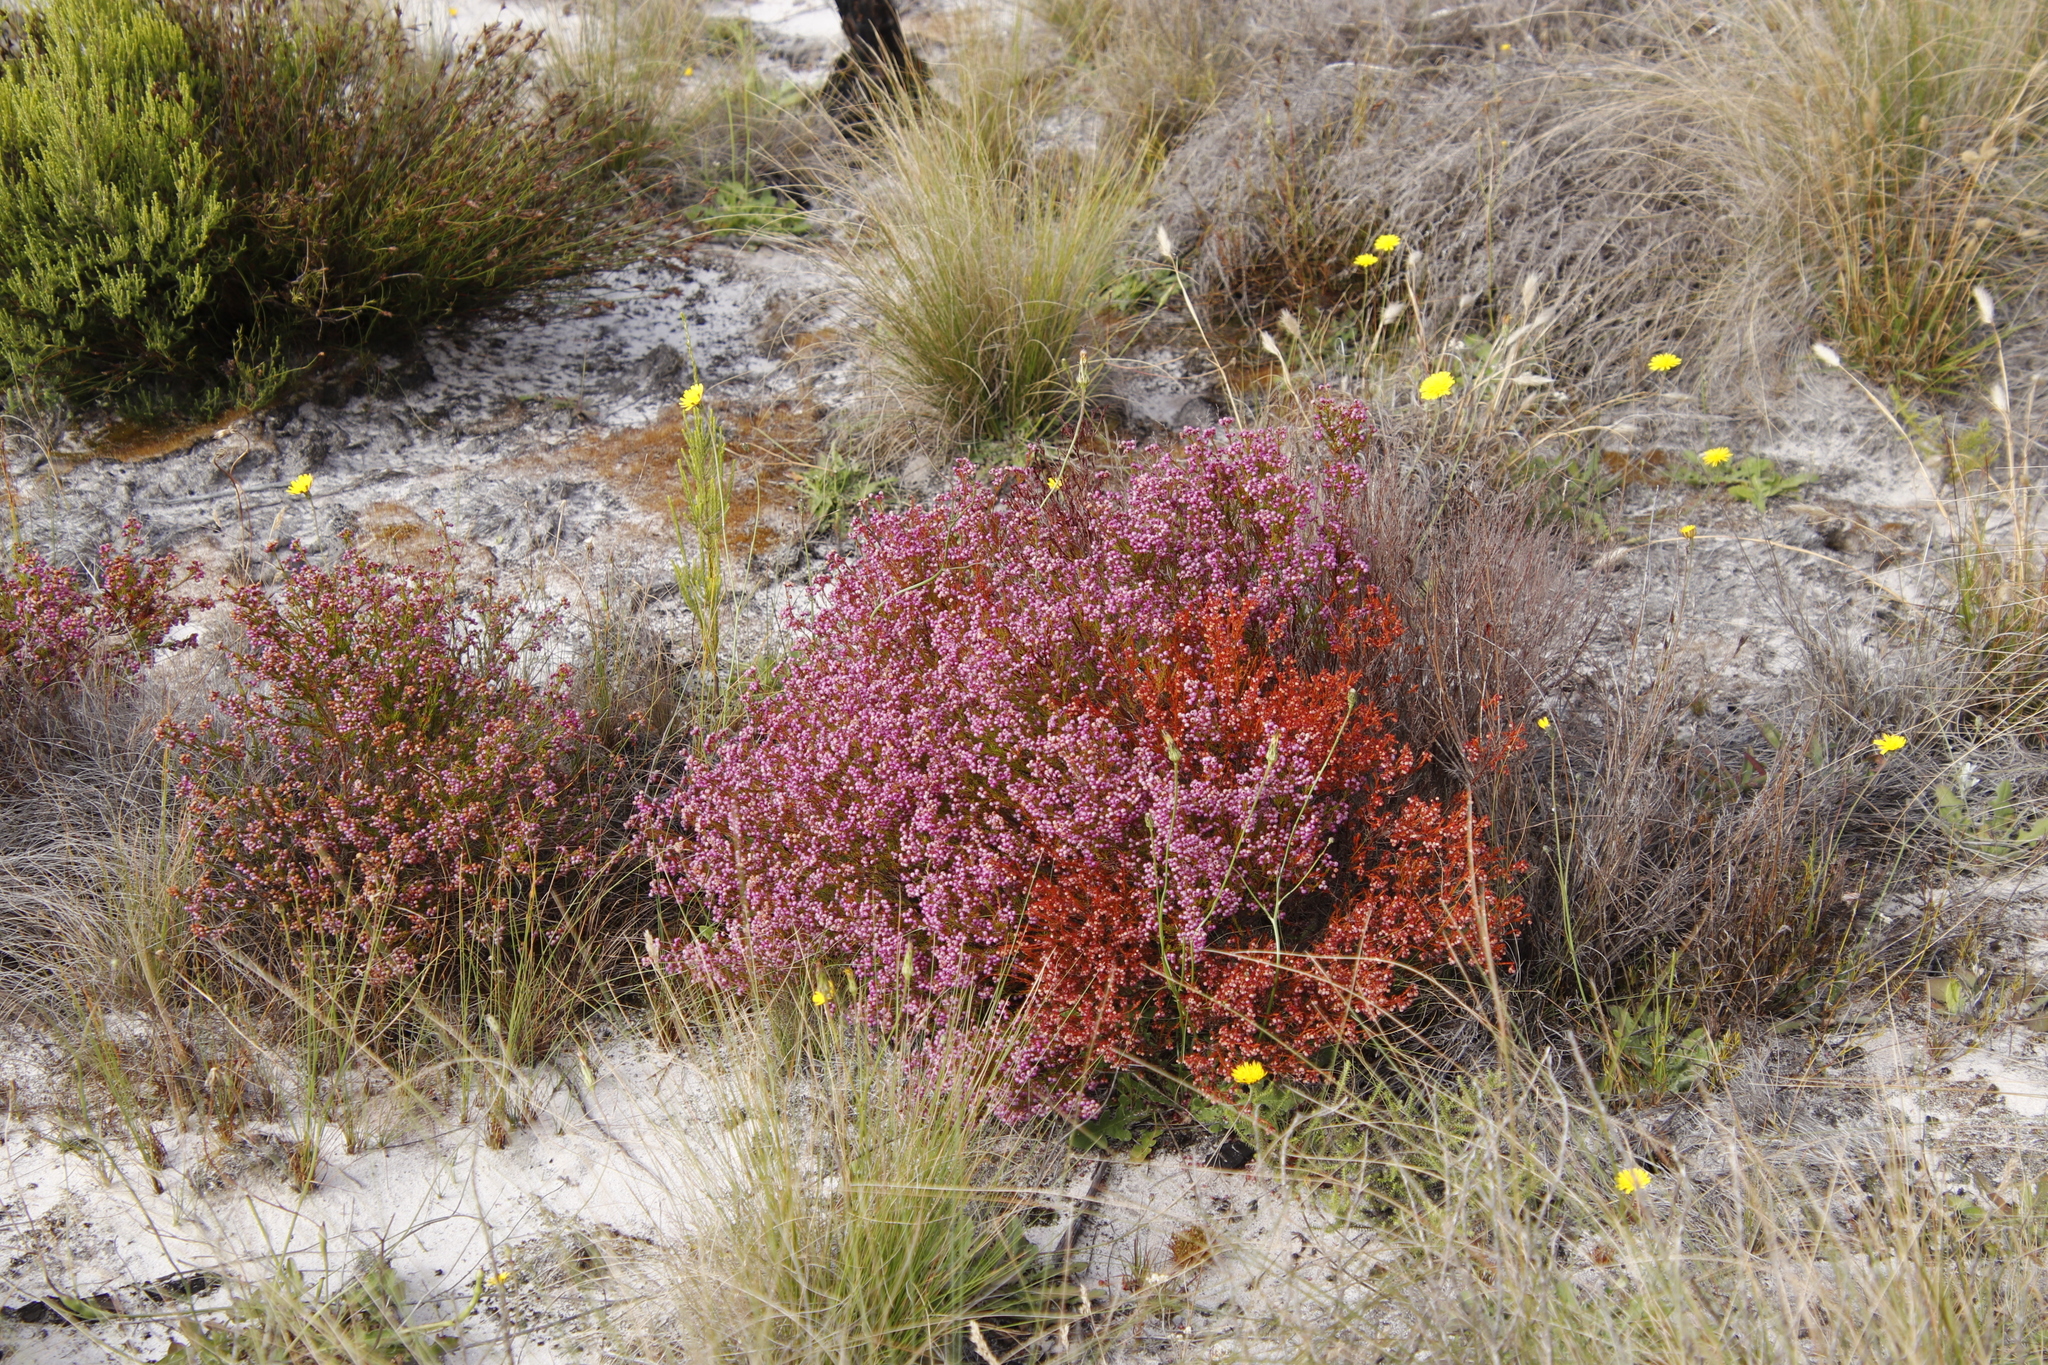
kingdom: Plantae
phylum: Tracheophyta
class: Magnoliopsida
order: Ericales
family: Ericaceae
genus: Erica
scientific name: Erica multumbellifera
